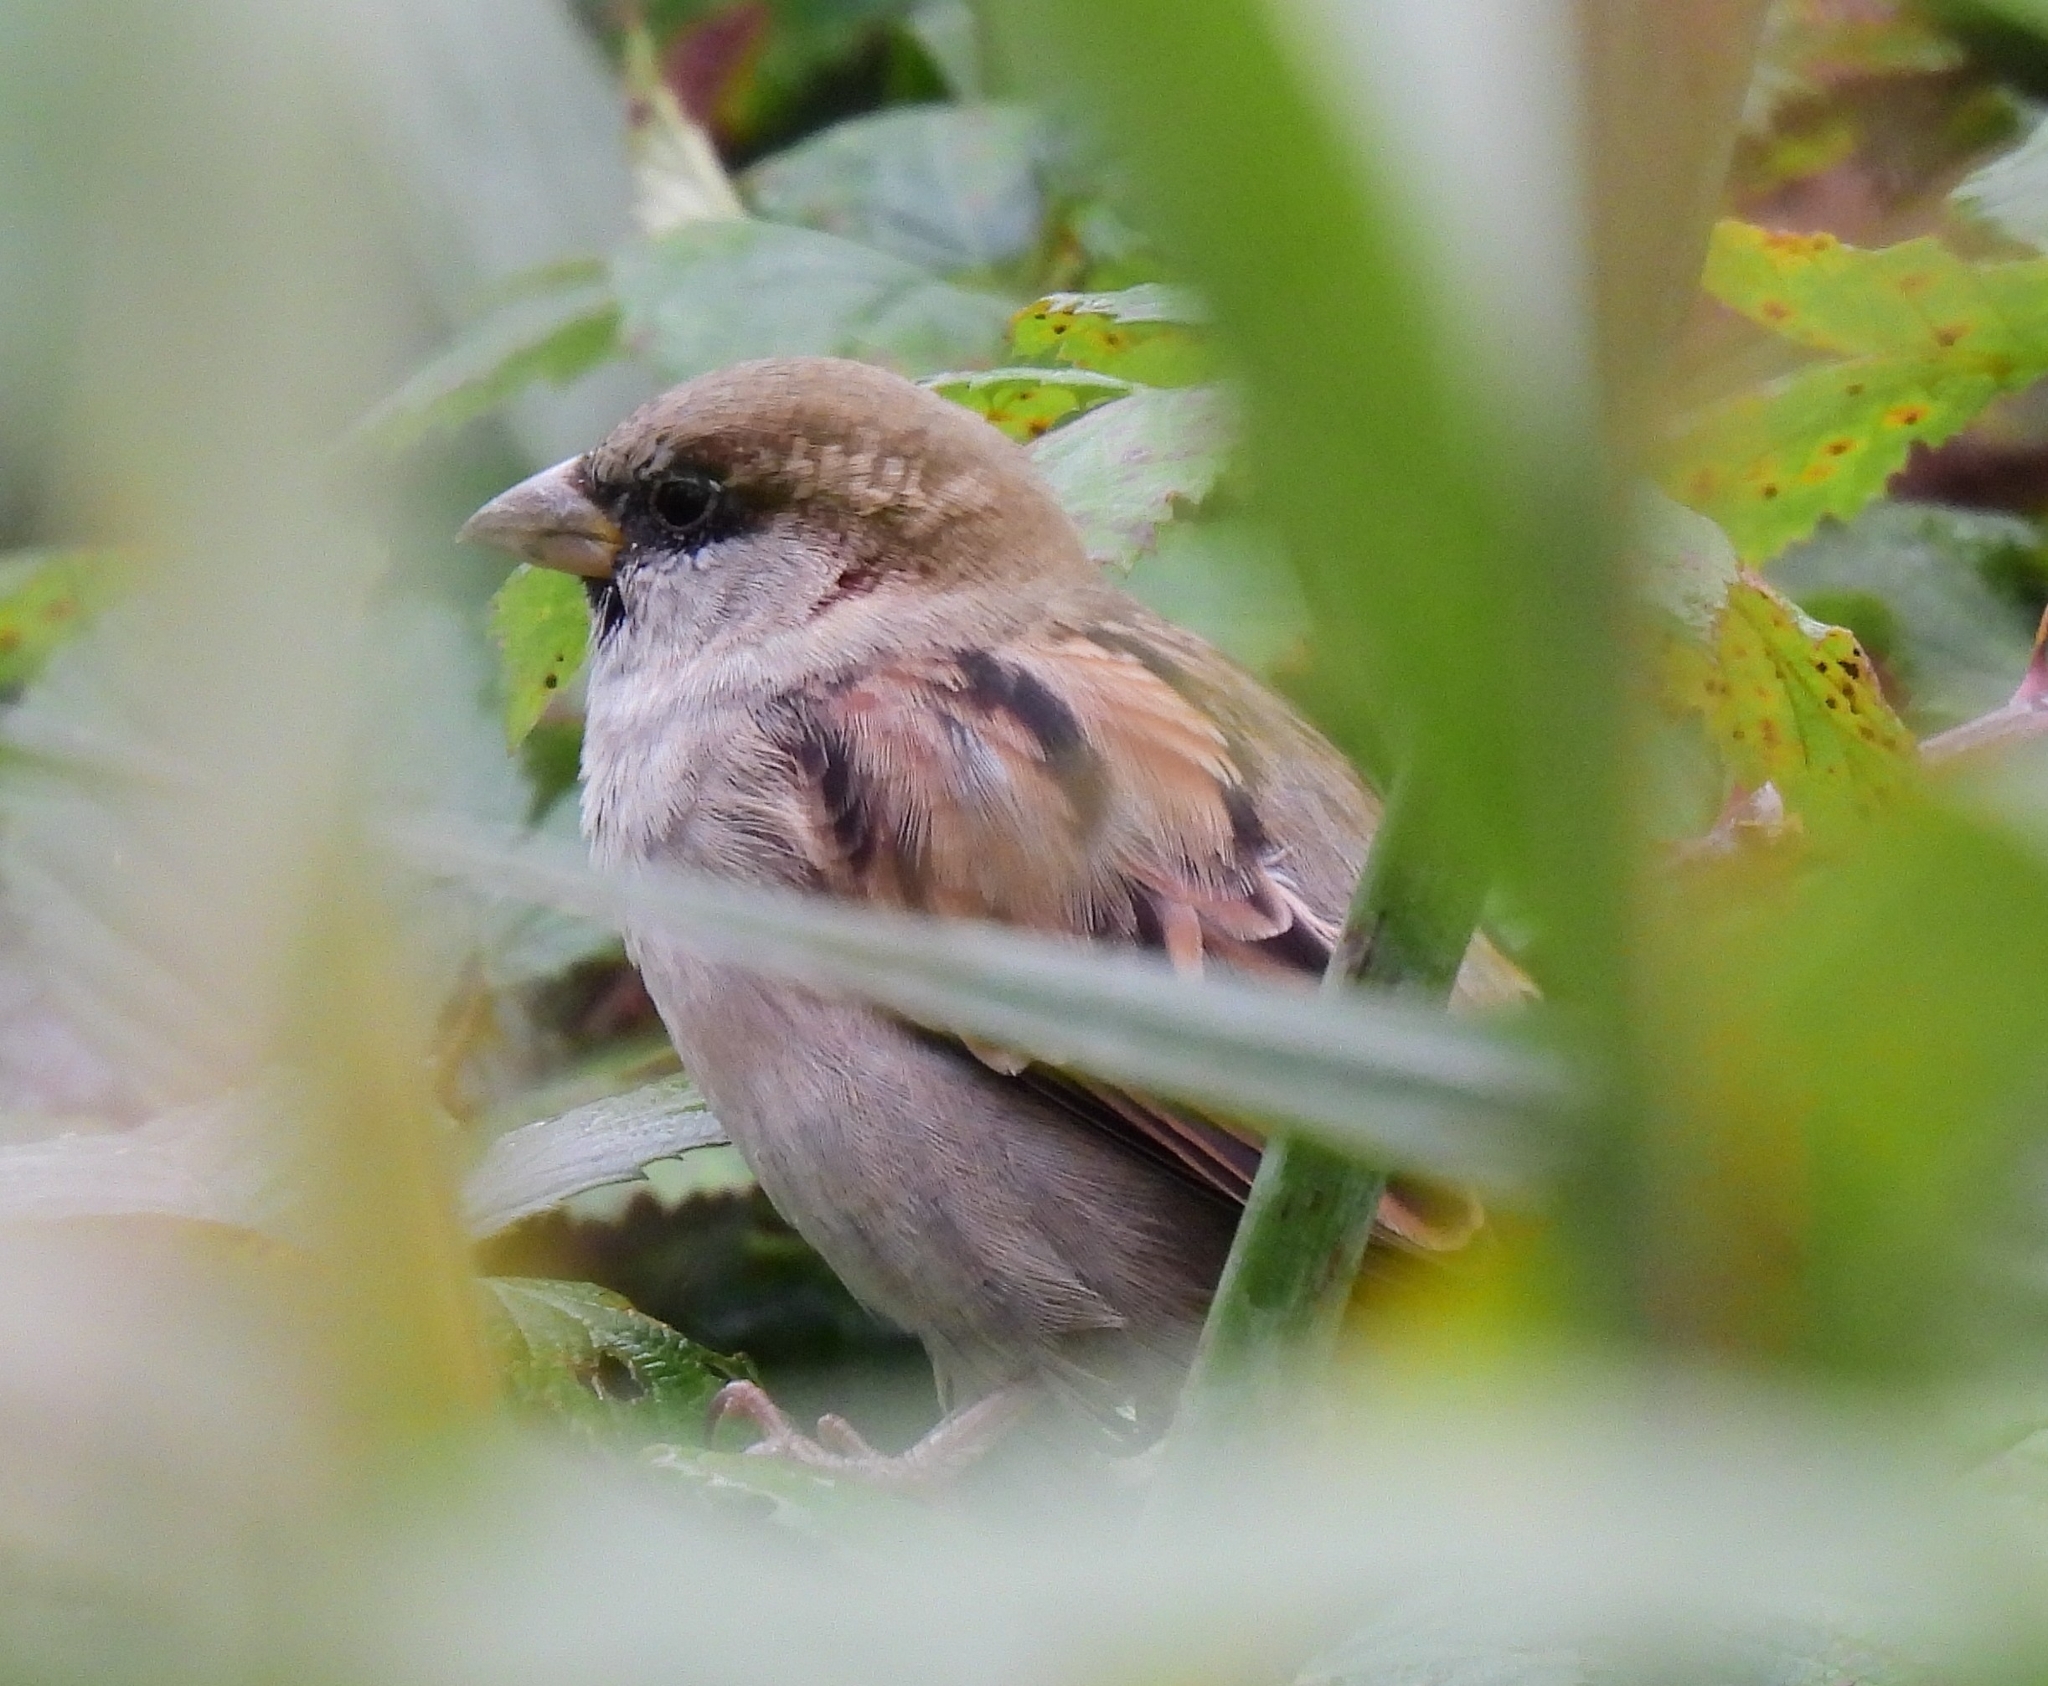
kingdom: Animalia
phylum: Chordata
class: Aves
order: Passeriformes
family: Passeridae
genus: Passer
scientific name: Passer domesticus
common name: House sparrow
